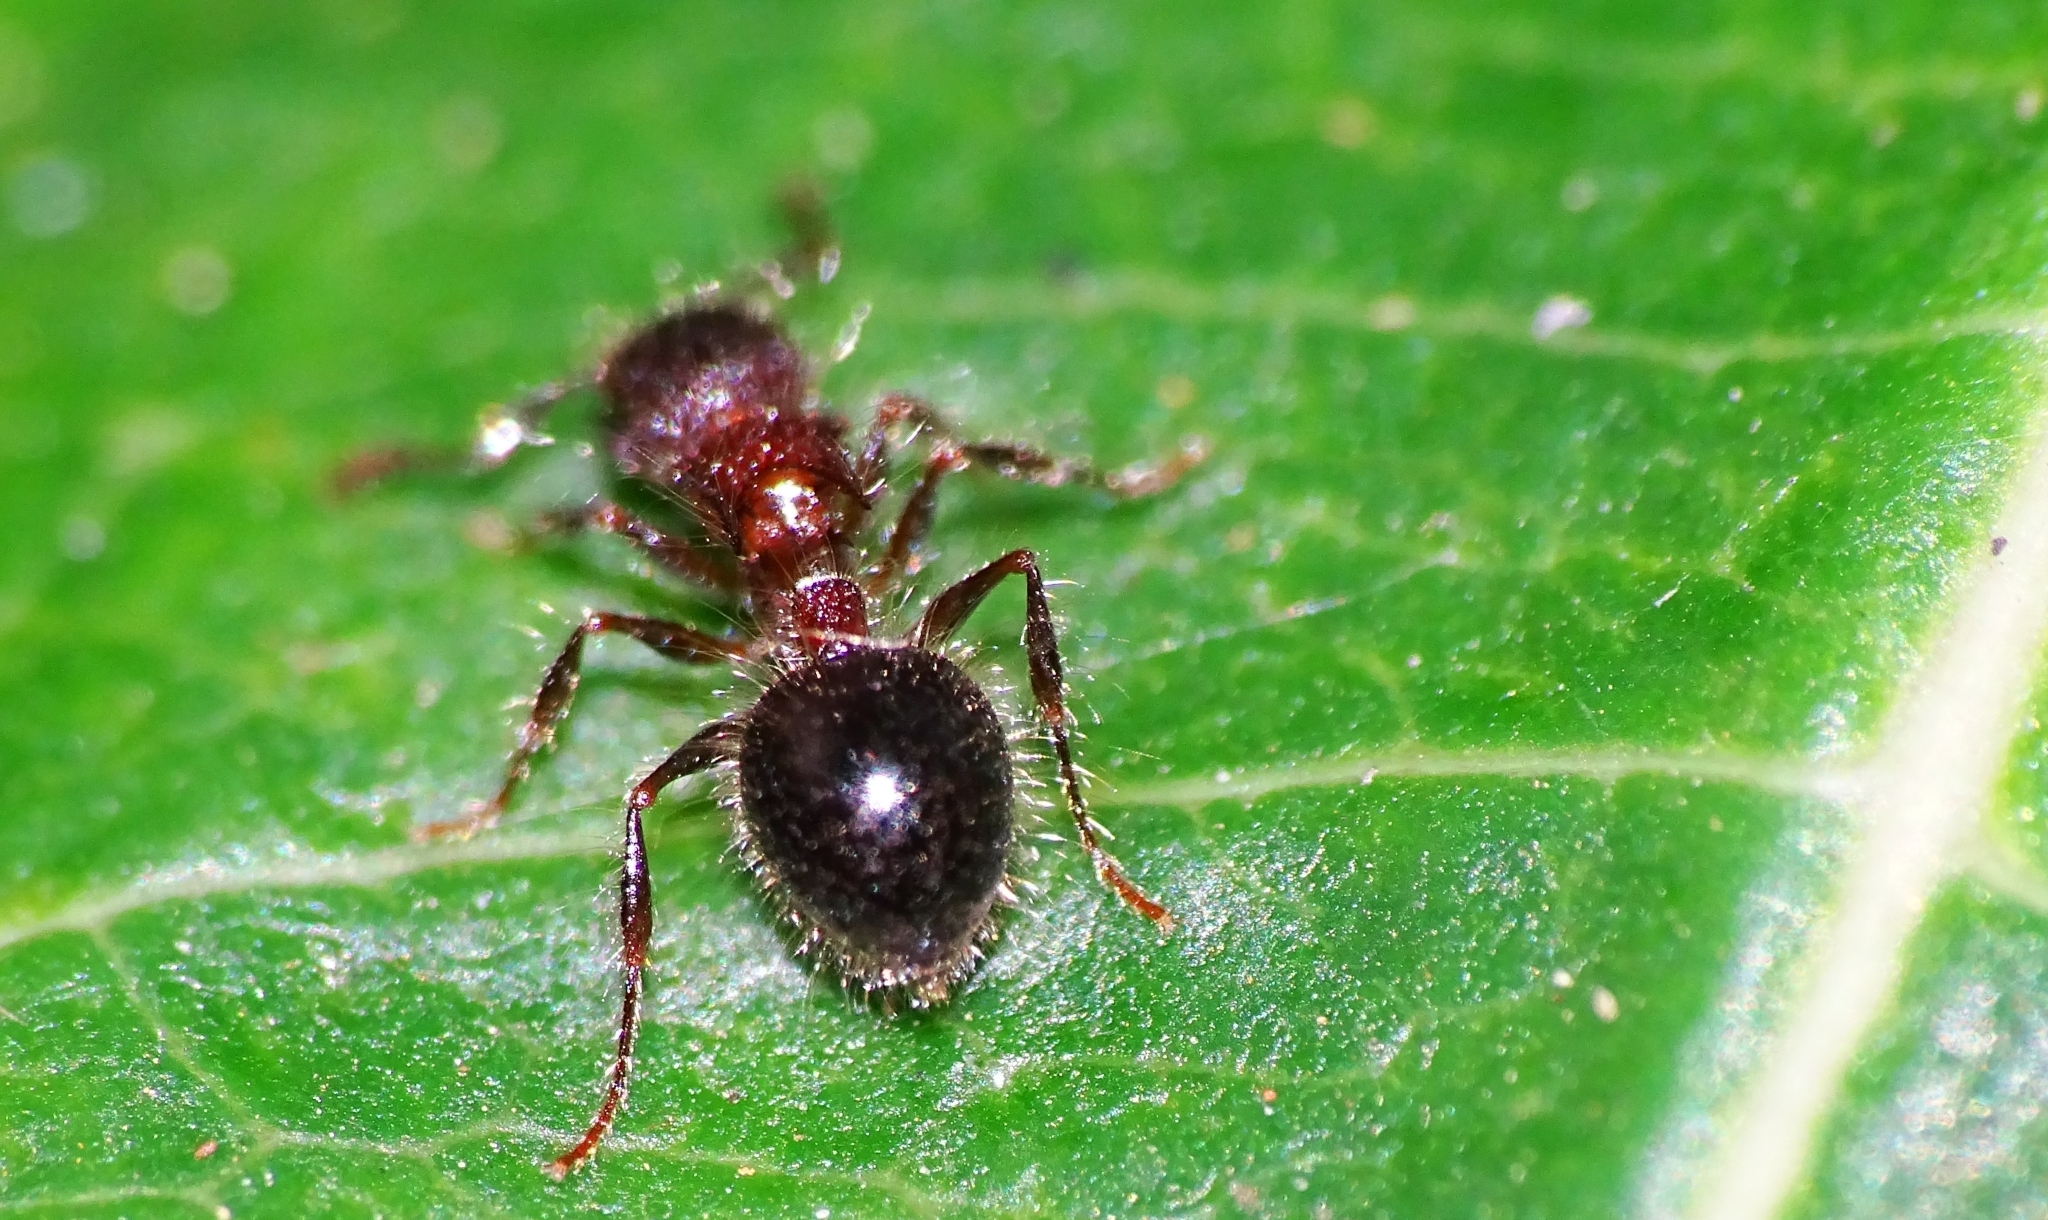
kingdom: Animalia
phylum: Arthropoda
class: Insecta
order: Hymenoptera
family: Formicidae
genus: Meranoplus
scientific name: Meranoplus bicolor
